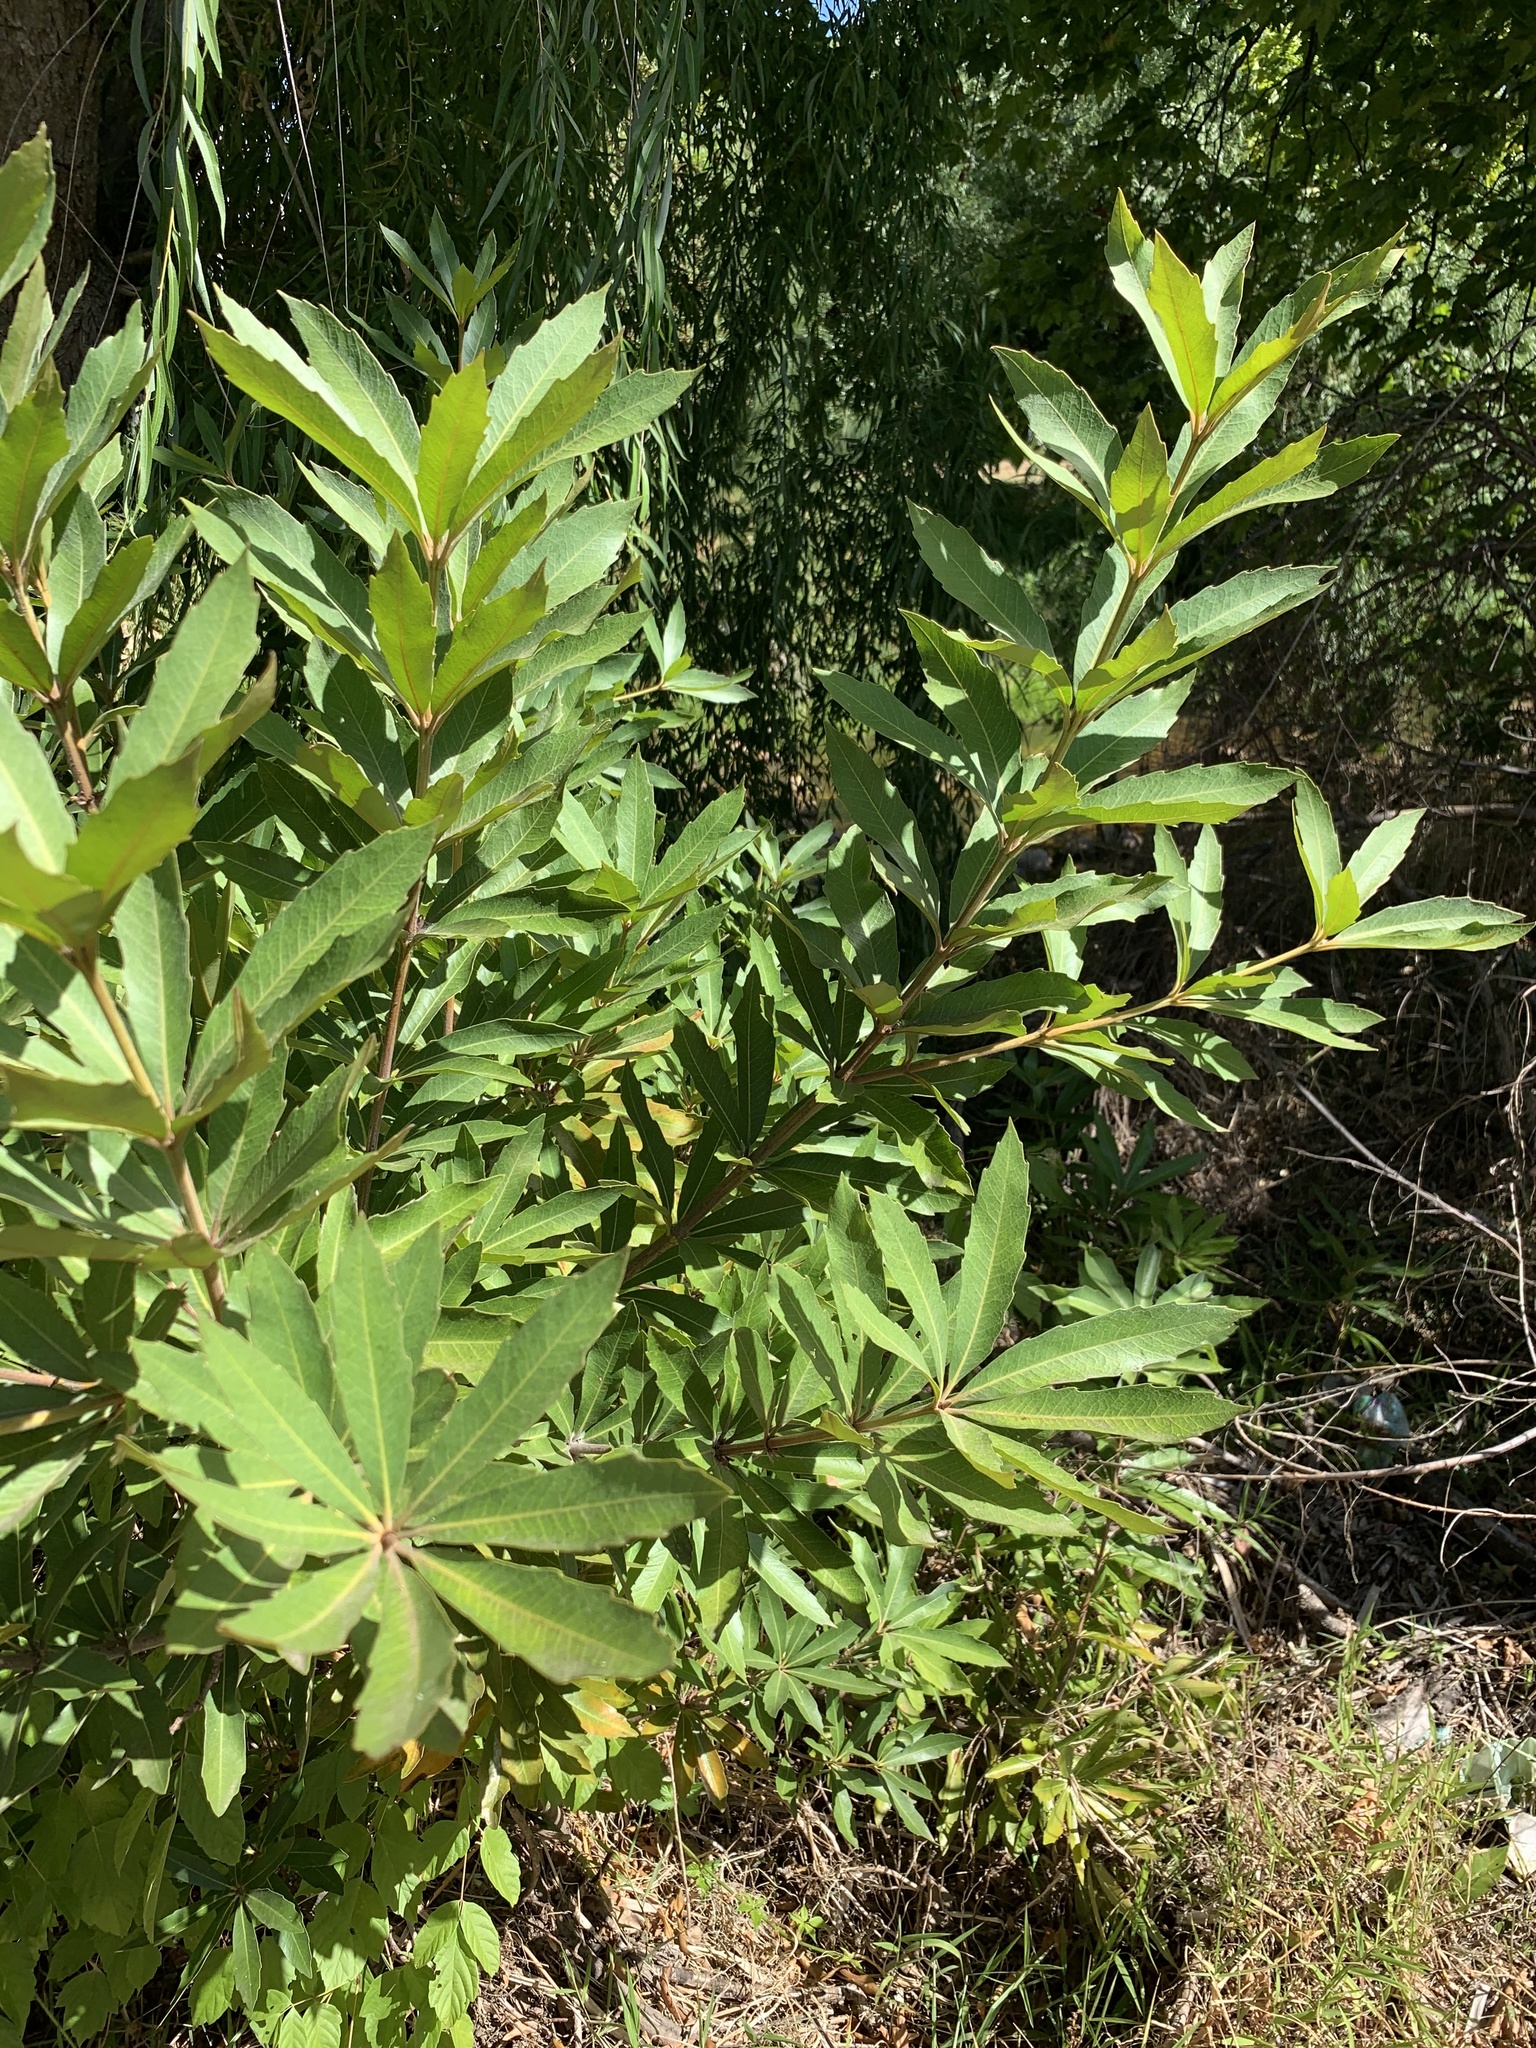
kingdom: Plantae
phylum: Tracheophyta
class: Magnoliopsida
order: Proteales
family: Proteaceae
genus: Brabejum
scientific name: Brabejum stellatifolium
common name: Wild almond
